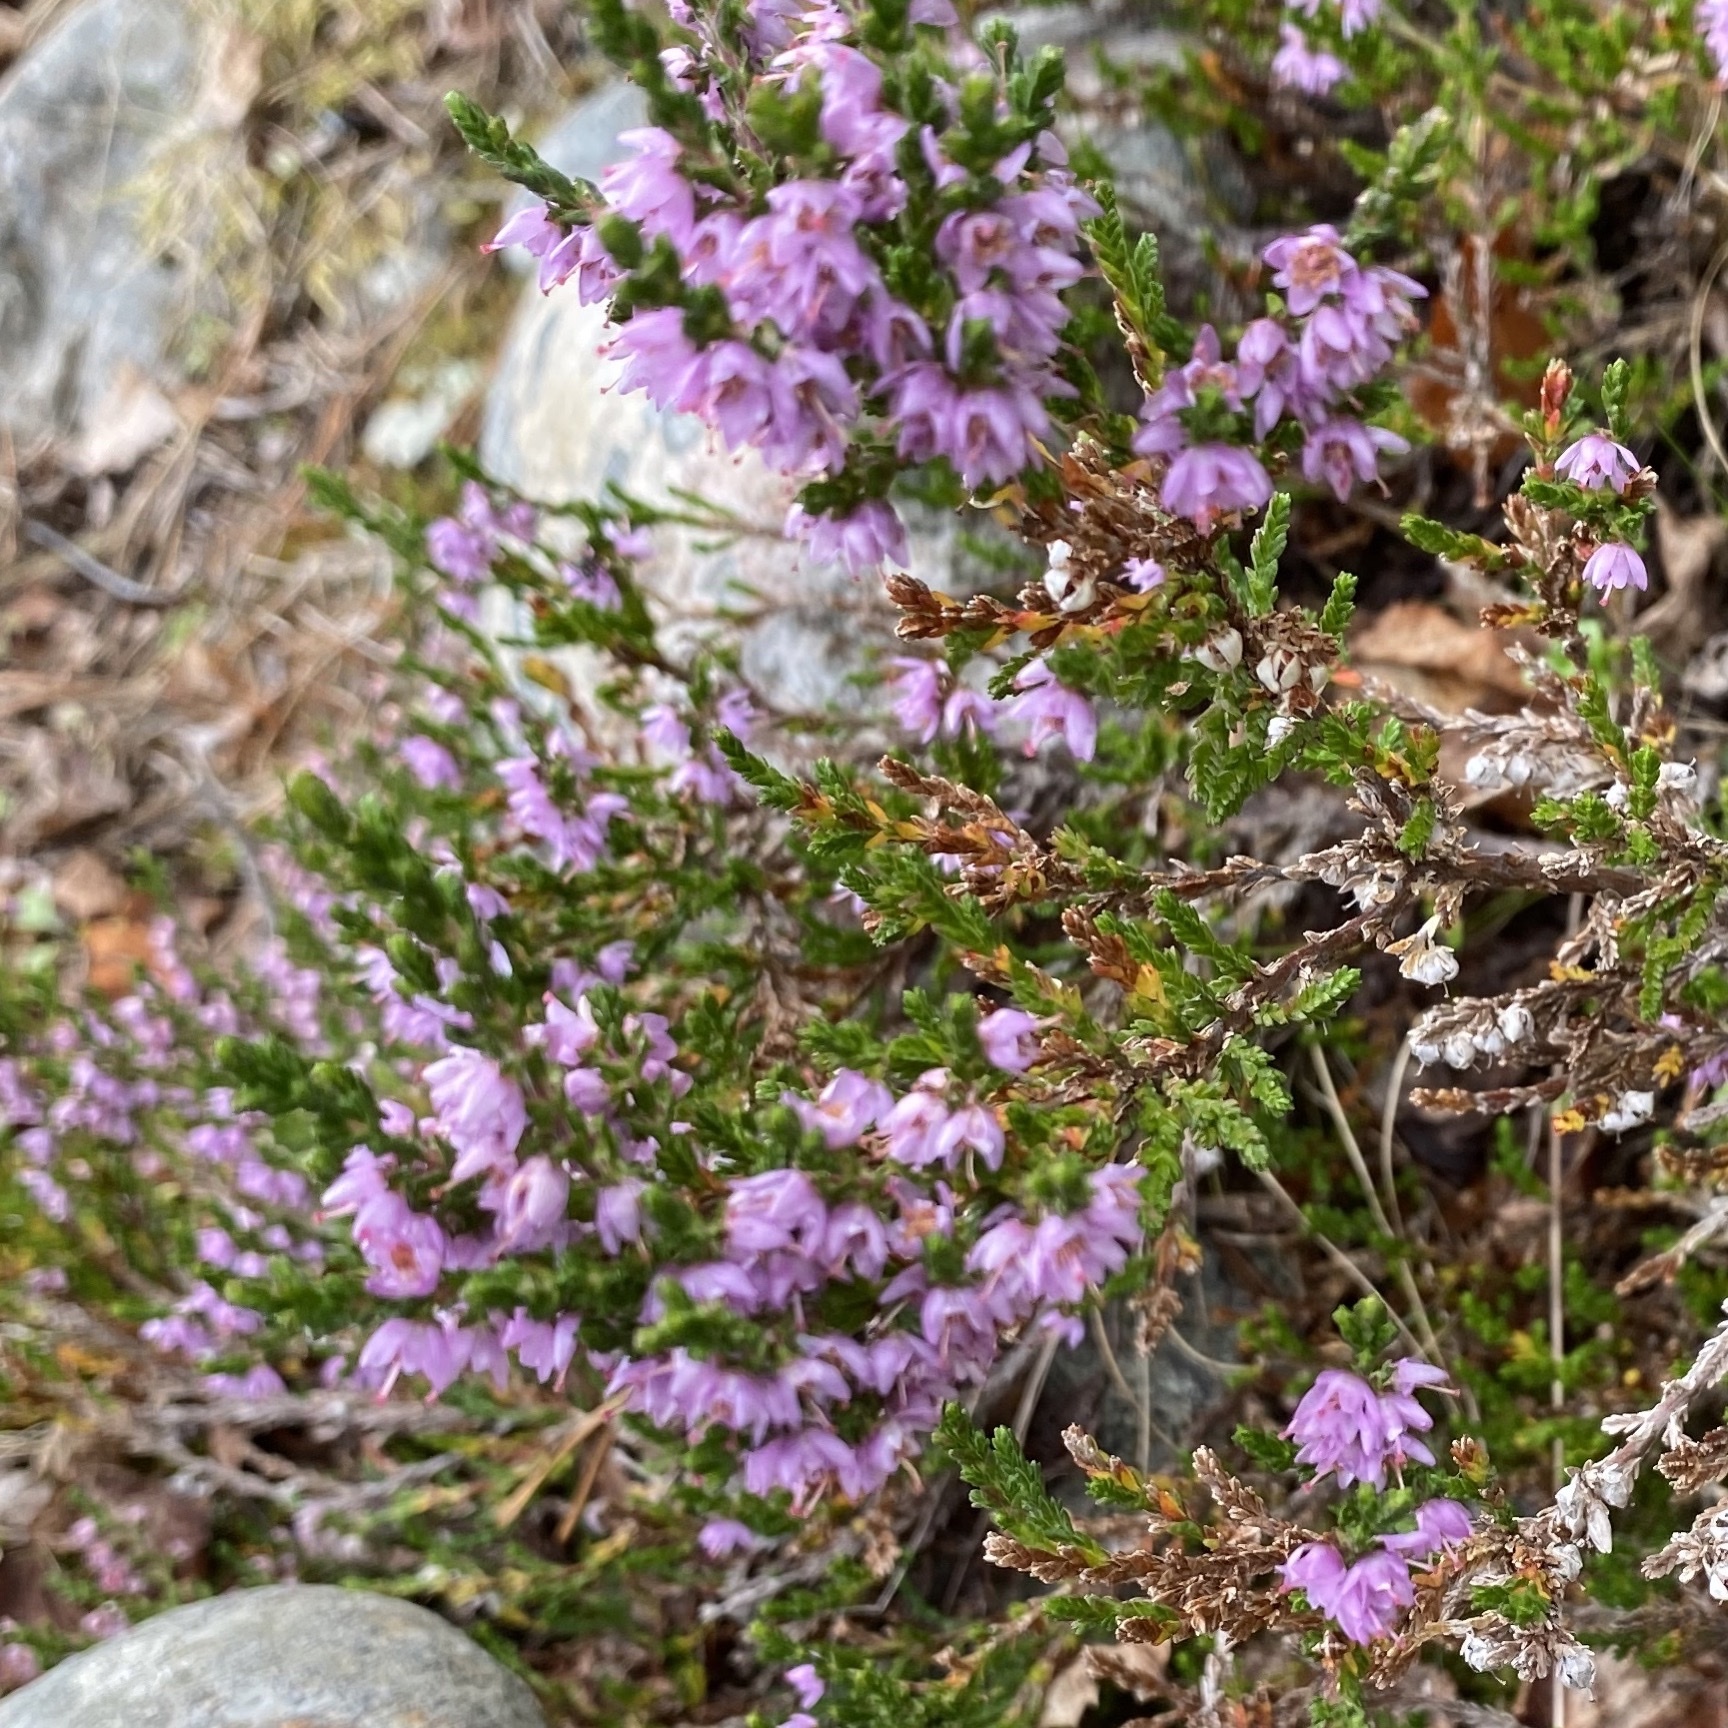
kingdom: Plantae
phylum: Tracheophyta
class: Magnoliopsida
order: Ericales
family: Ericaceae
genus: Calluna
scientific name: Calluna vulgaris
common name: Heather
